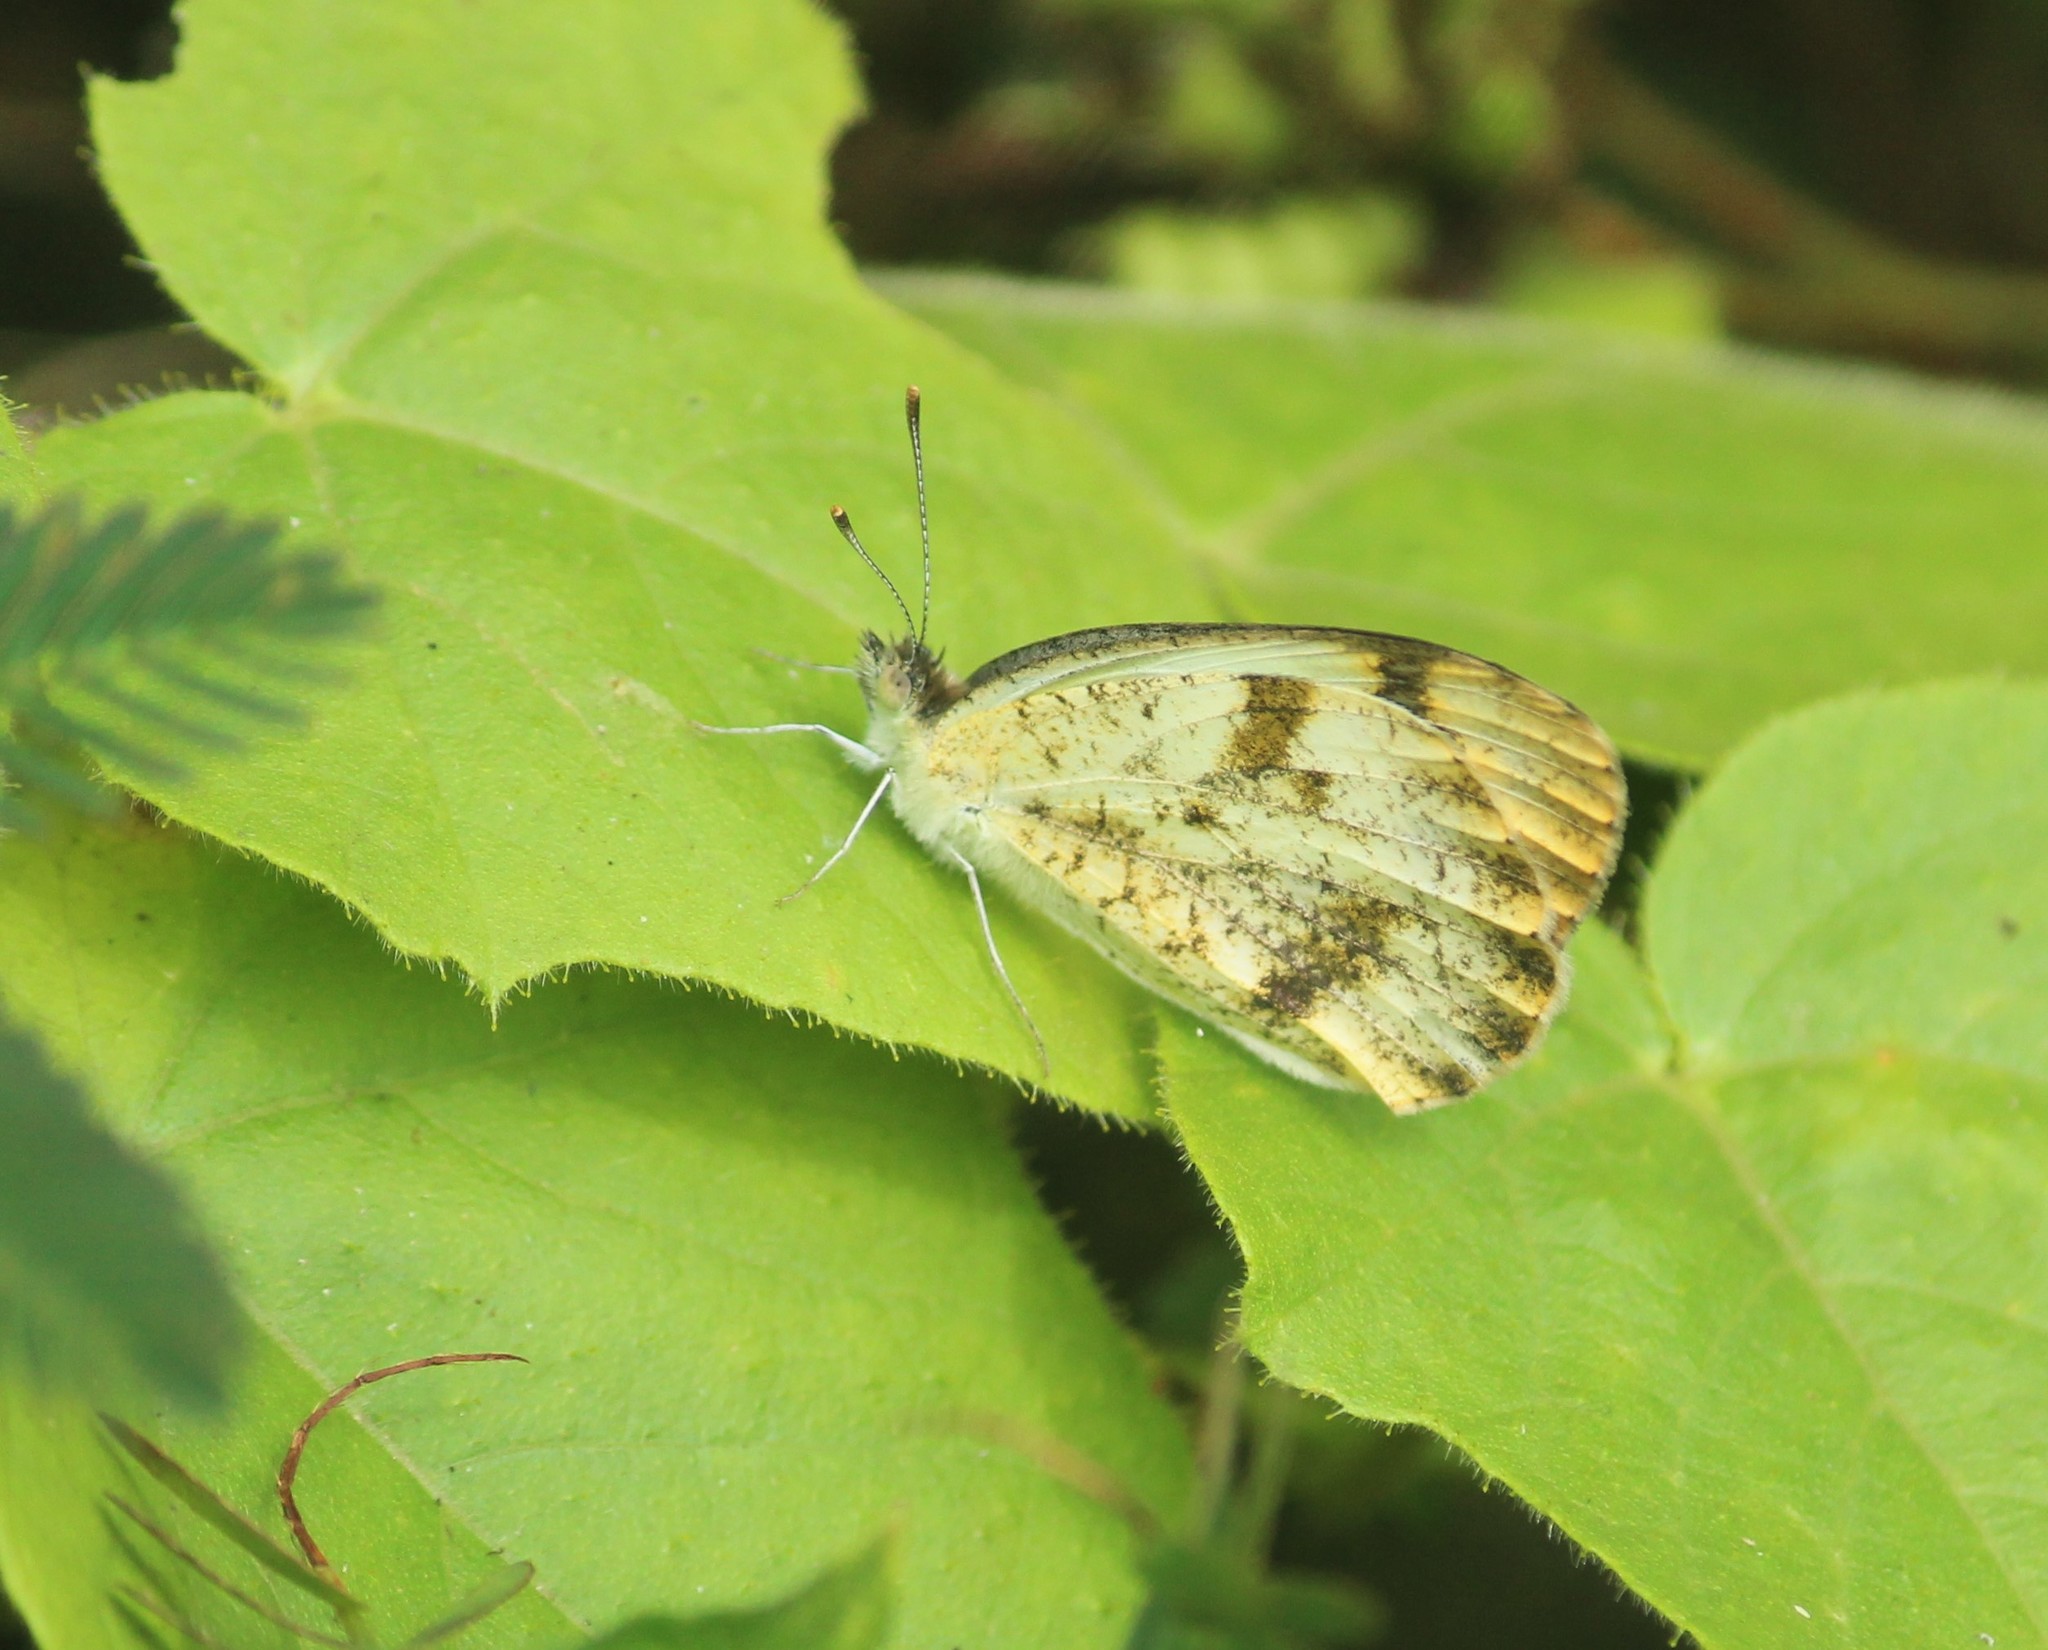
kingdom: Animalia
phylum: Arthropoda
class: Insecta
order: Lepidoptera
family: Pieridae
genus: Colotis
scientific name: Colotis aurora
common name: Plain orange-tip
